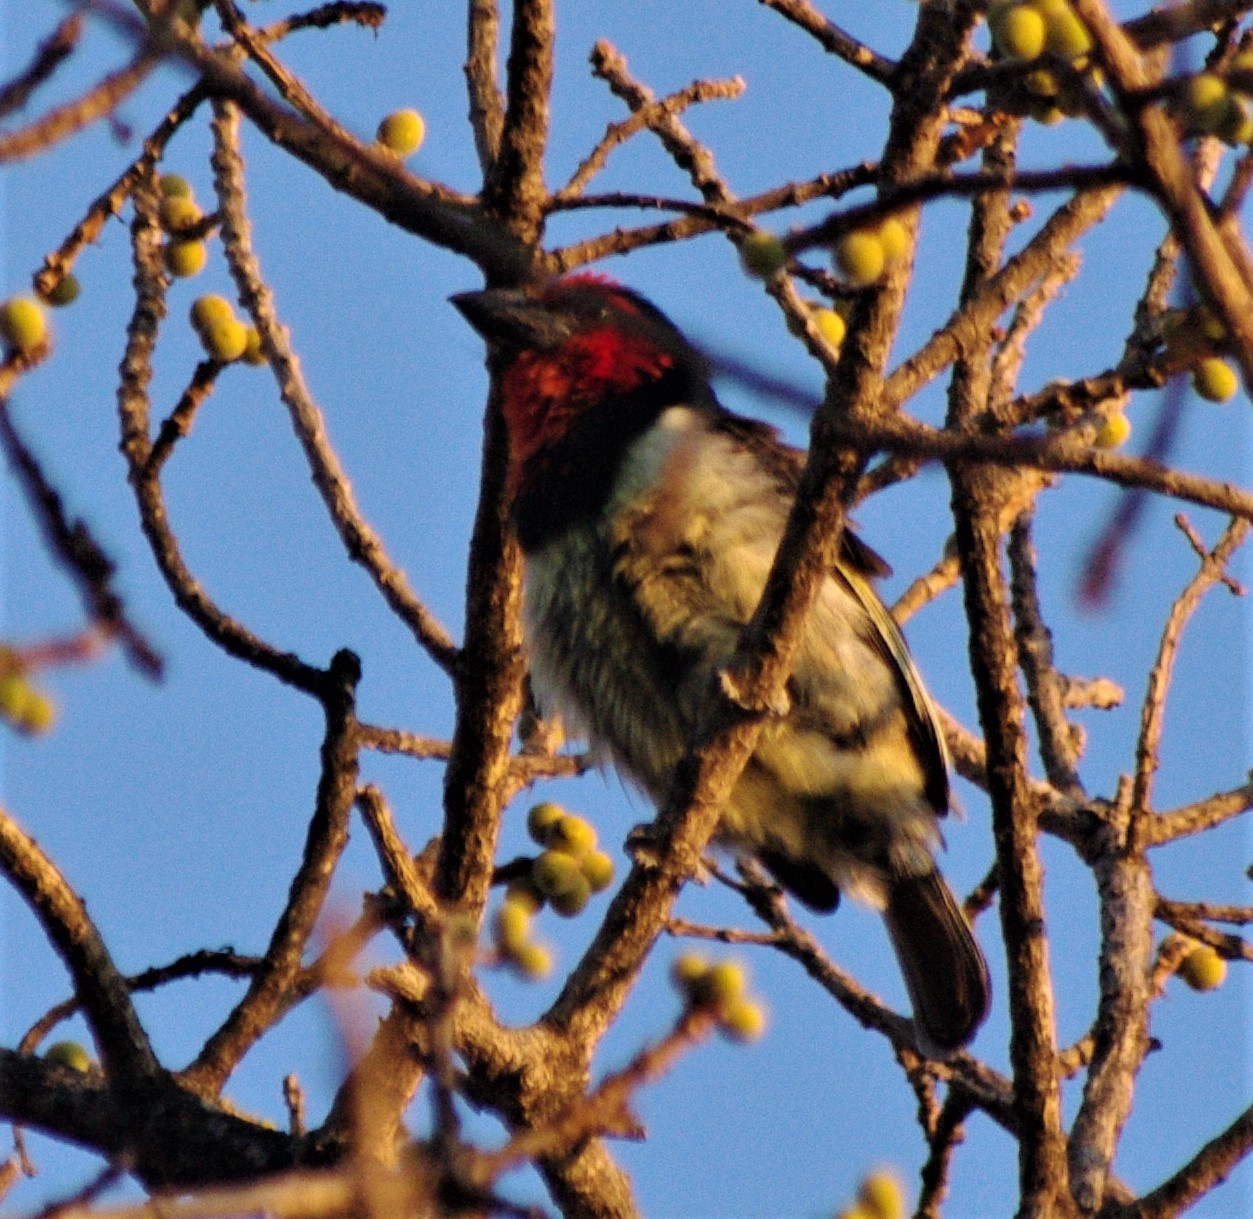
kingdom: Animalia
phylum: Chordata
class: Aves
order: Piciformes
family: Lybiidae
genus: Lybius
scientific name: Lybius torquatus
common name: Black-collared barbet
